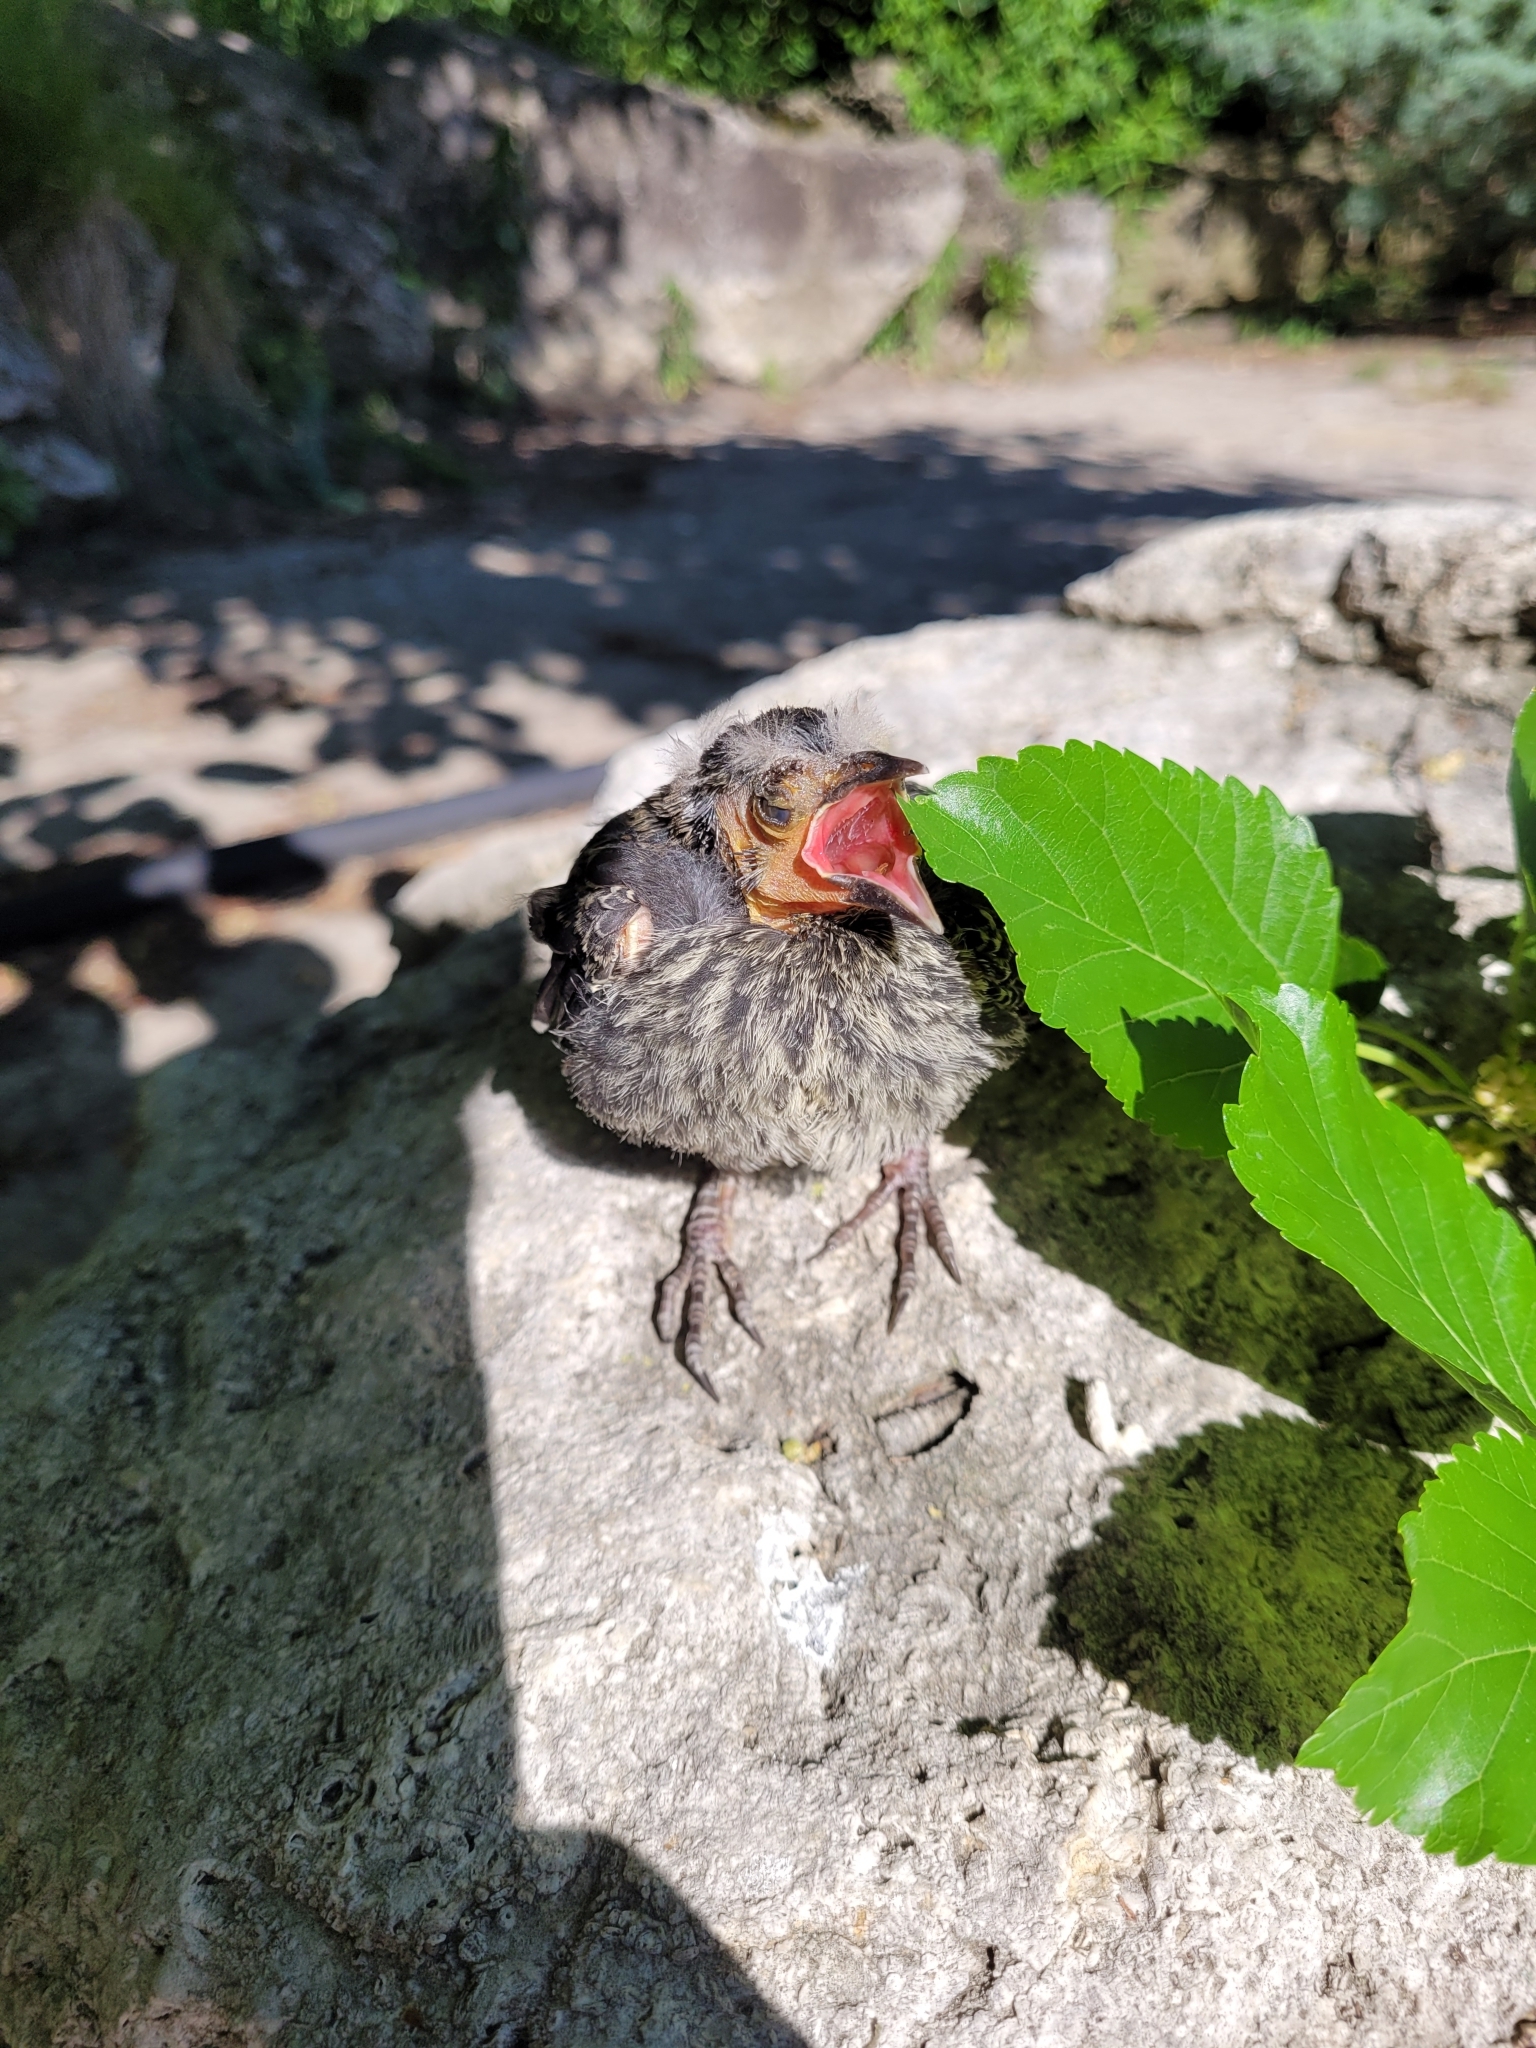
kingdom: Animalia
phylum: Chordata
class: Aves
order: Passeriformes
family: Icteridae
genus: Agelaius
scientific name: Agelaius phoeniceus
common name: Red-winged blackbird
